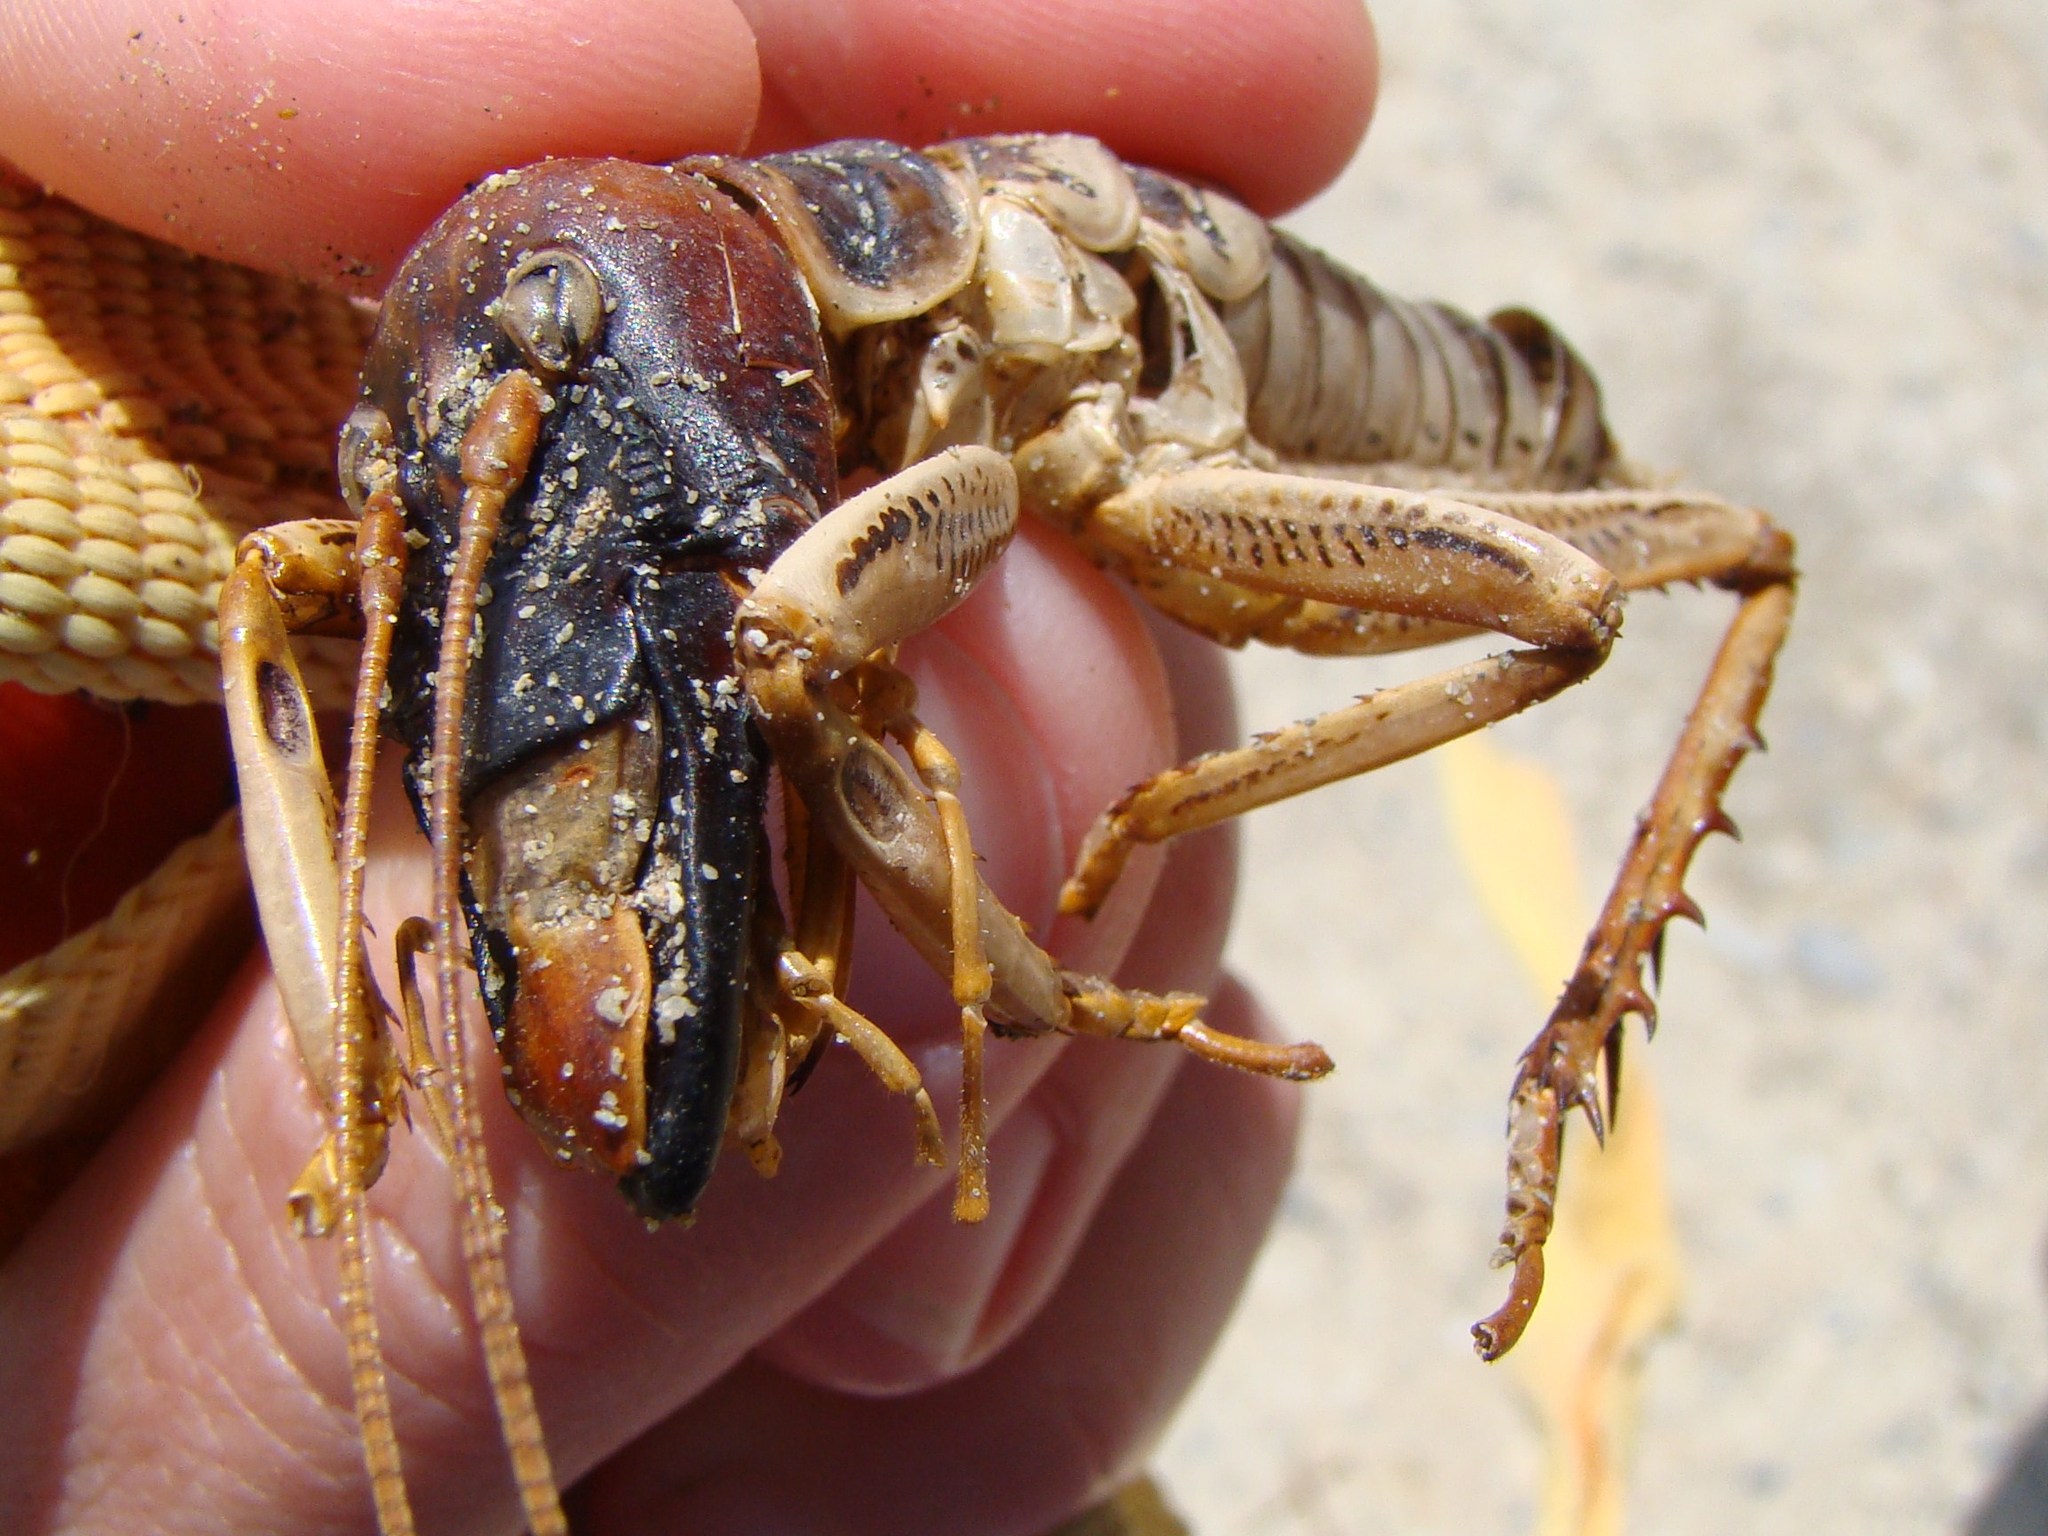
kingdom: Animalia
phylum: Arthropoda
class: Insecta
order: Orthoptera
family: Anostostomatidae
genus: Hemideina
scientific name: Hemideina crassidens
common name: Wellington tree weta
